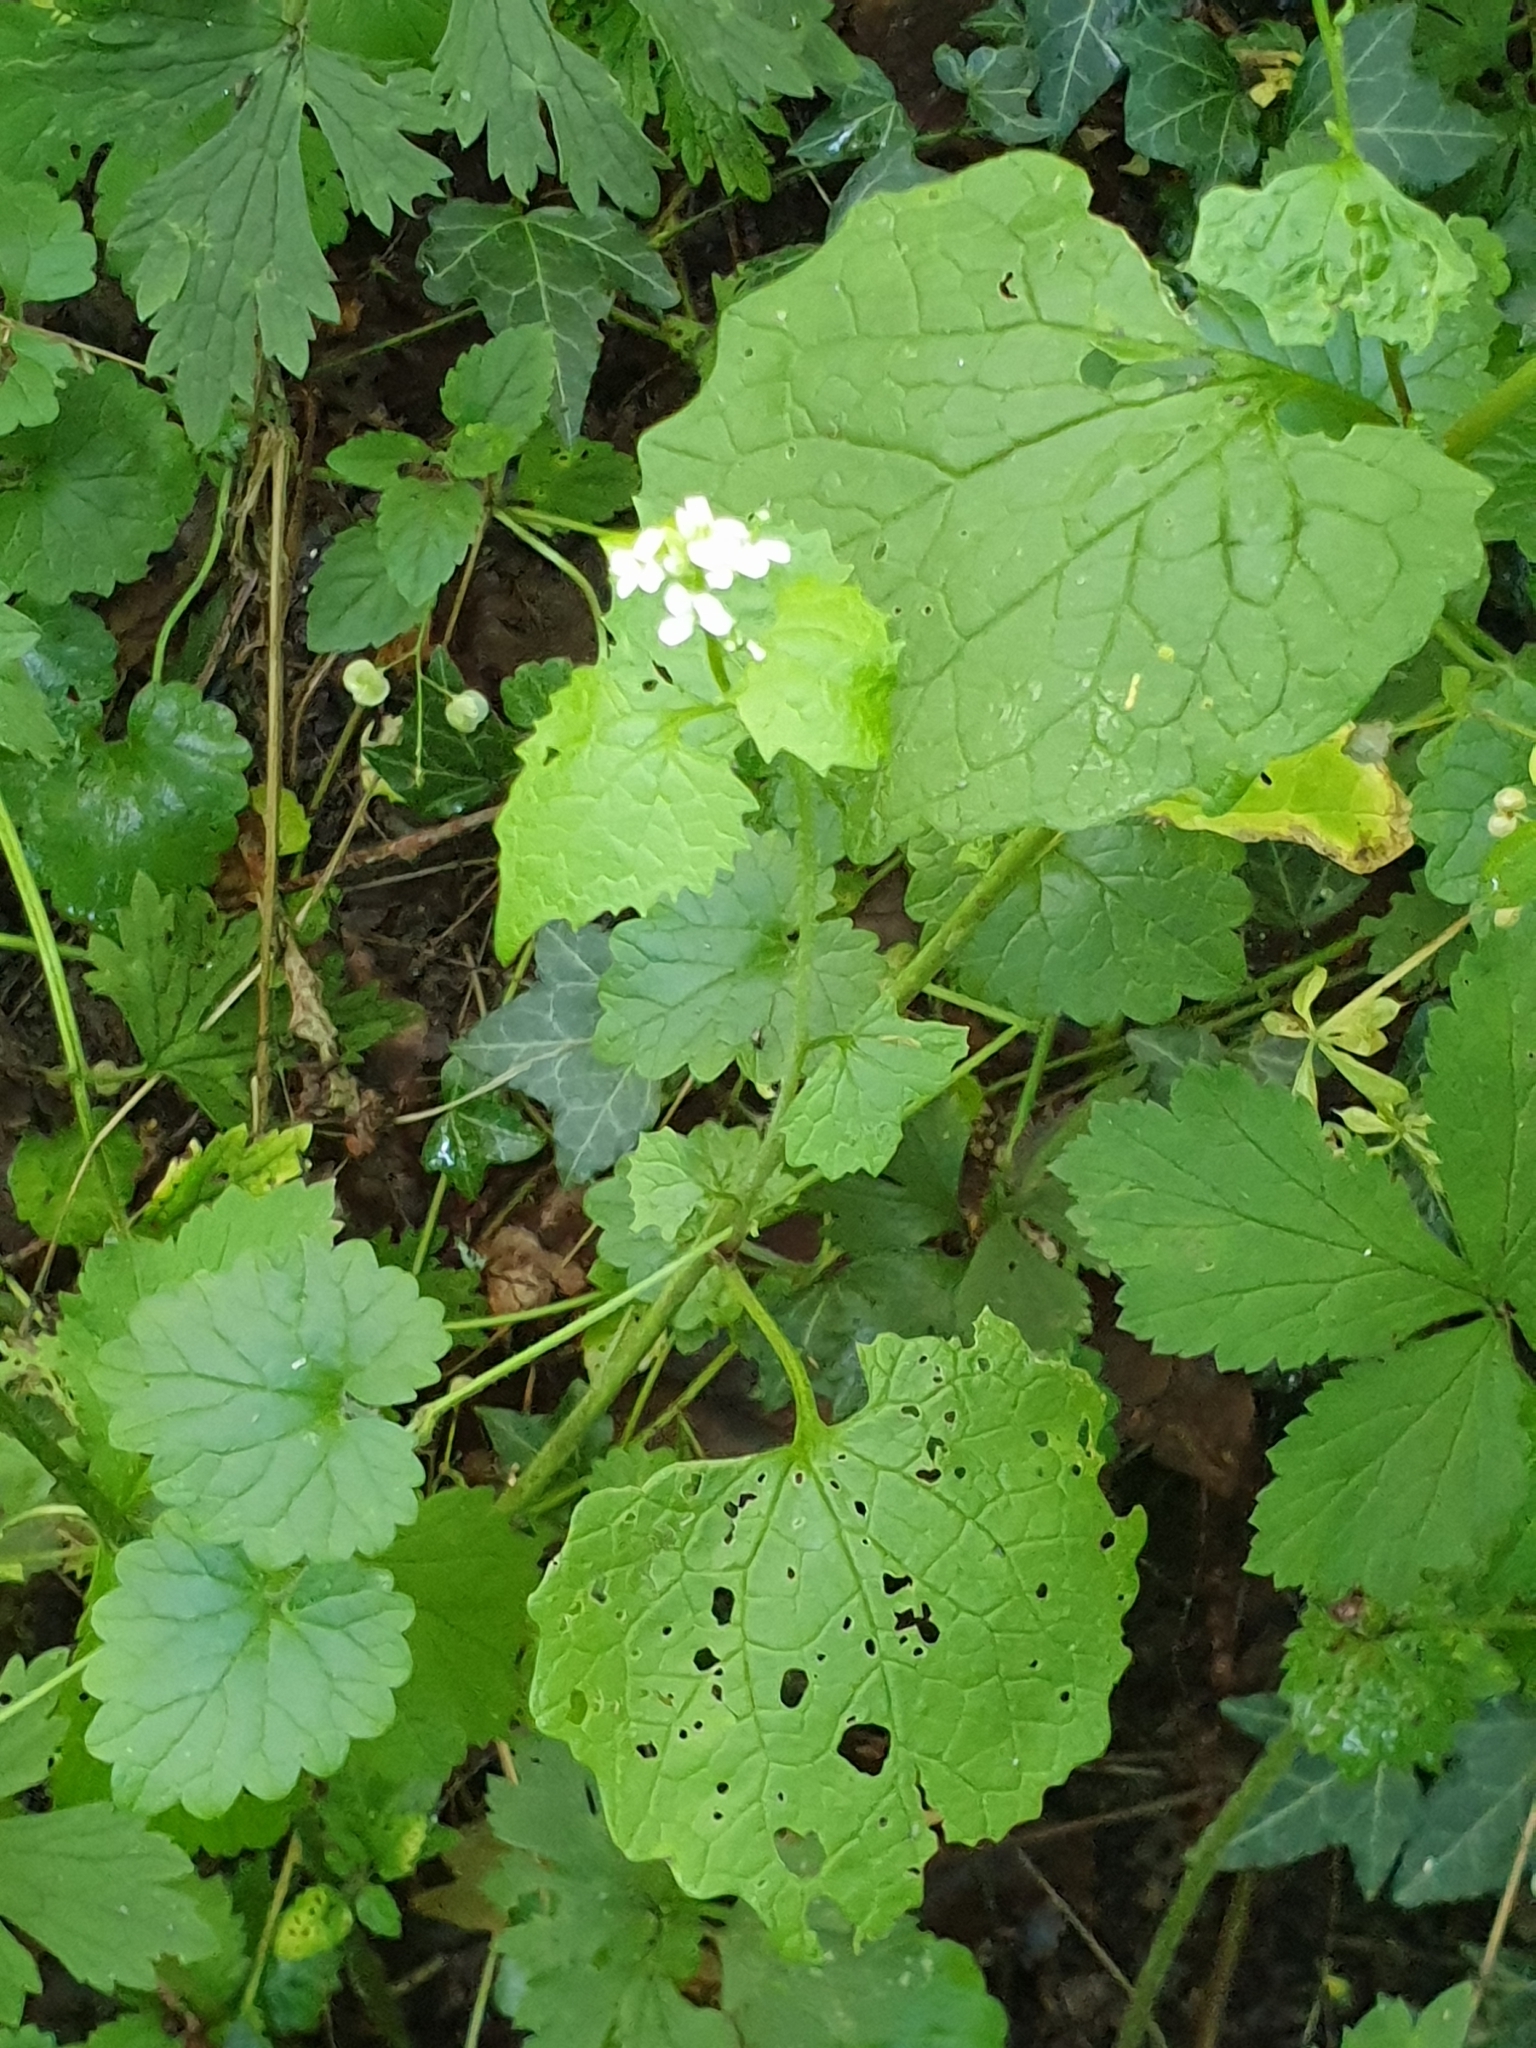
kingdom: Plantae
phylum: Tracheophyta
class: Magnoliopsida
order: Brassicales
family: Brassicaceae
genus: Alliaria
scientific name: Alliaria petiolata
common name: Garlic mustard
